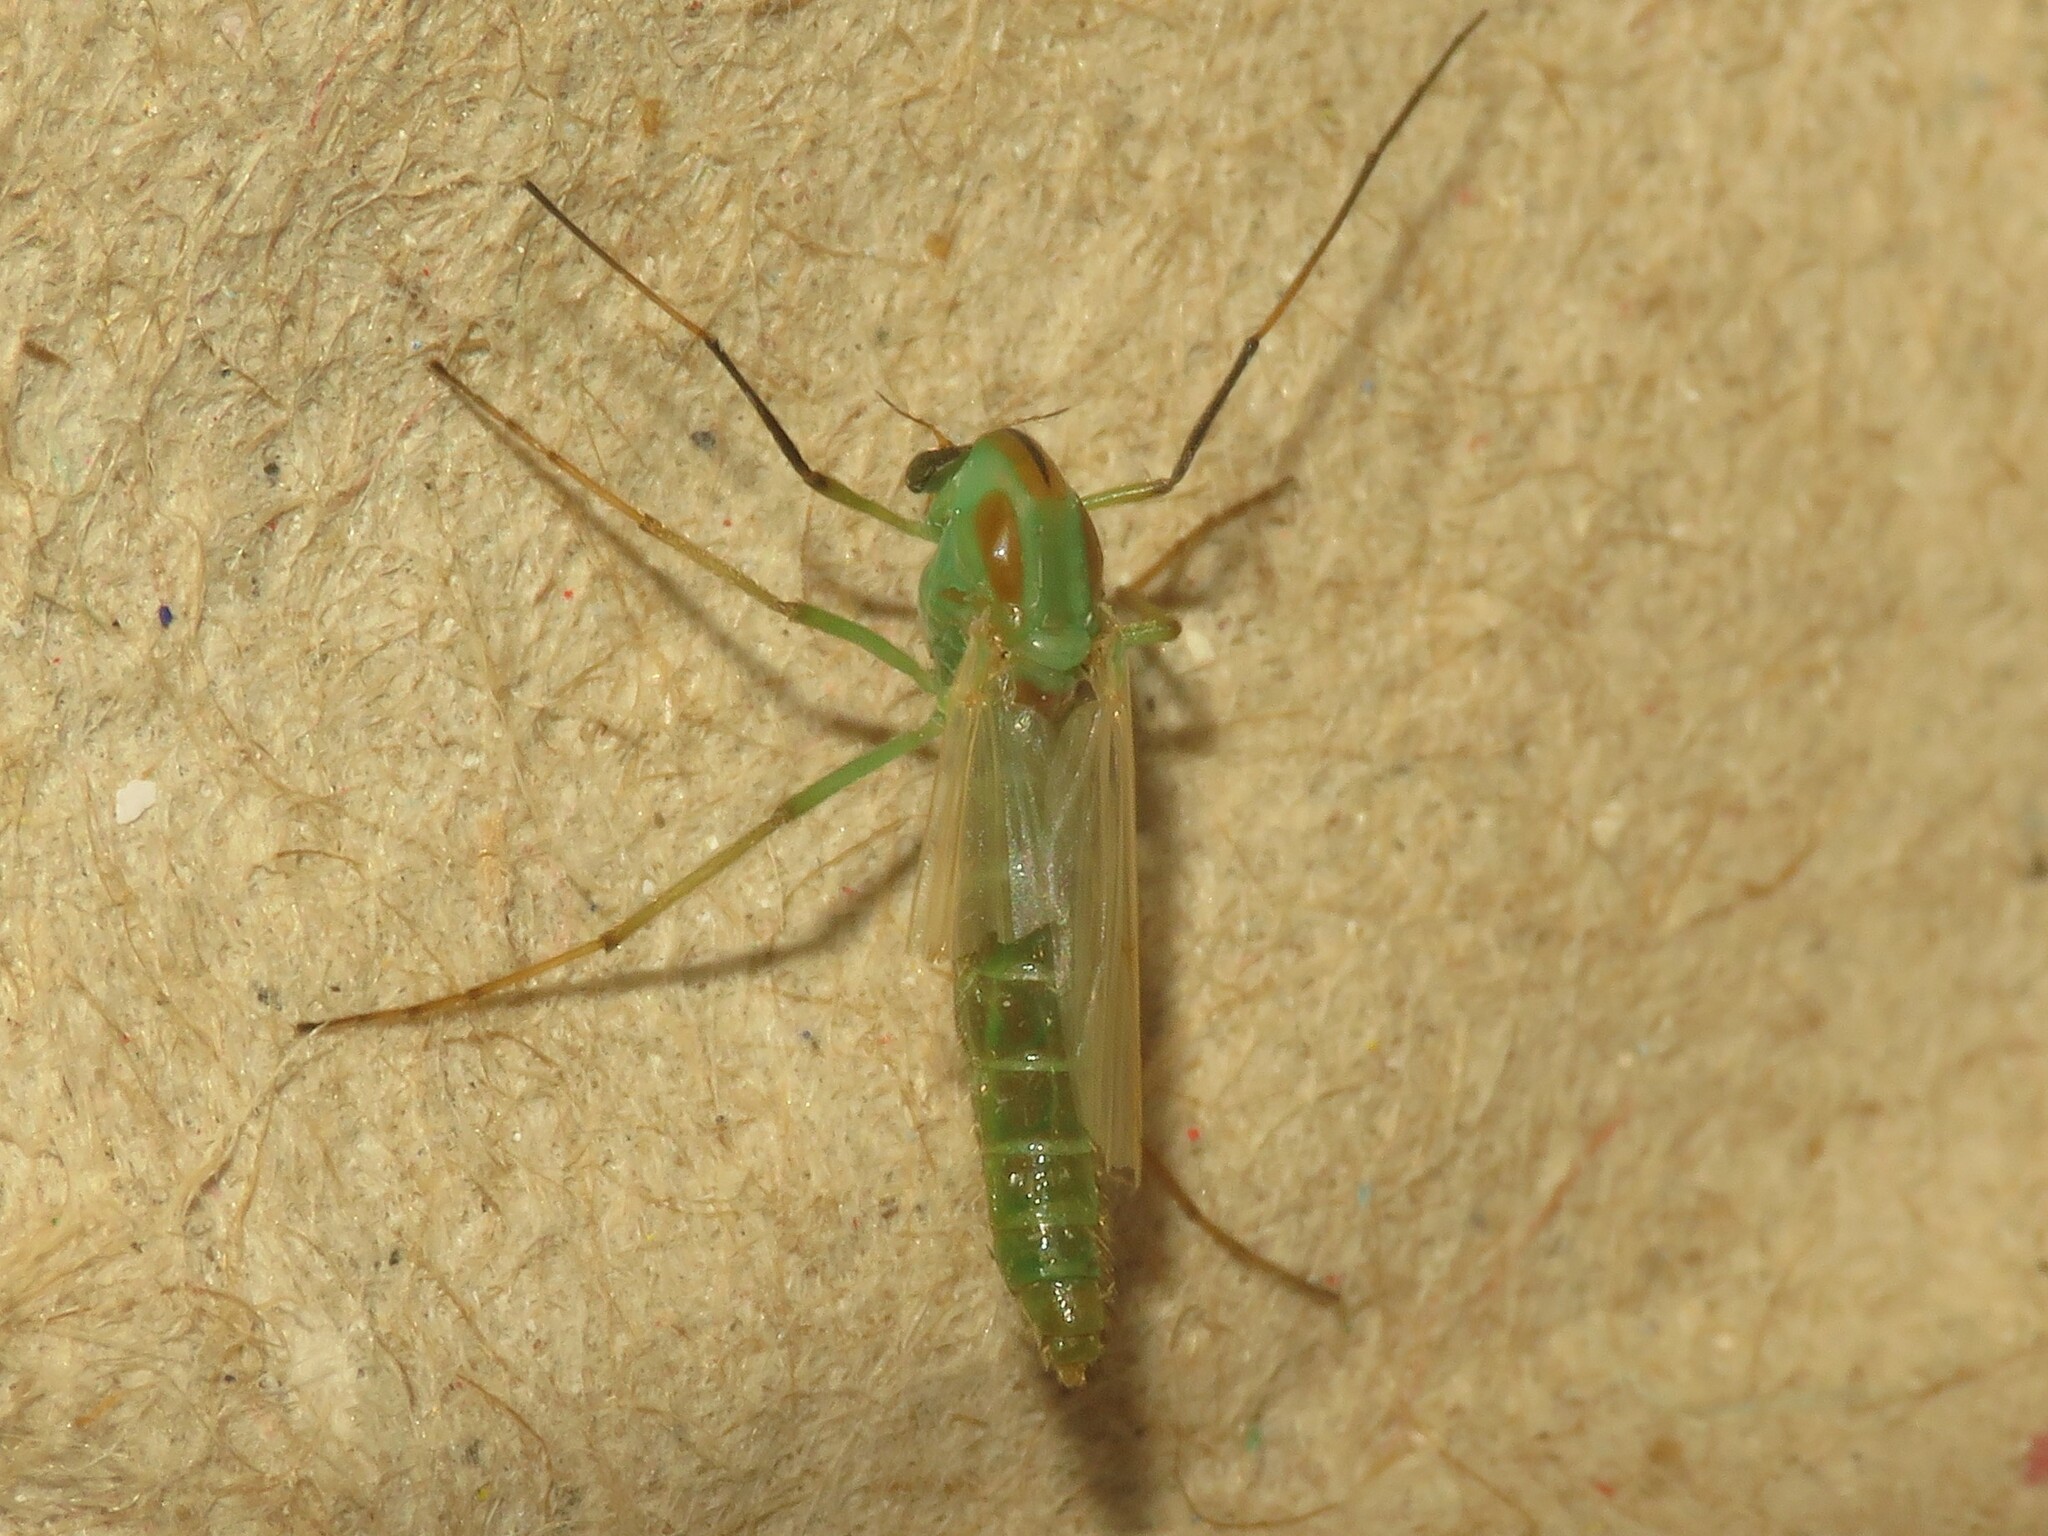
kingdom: Animalia
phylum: Arthropoda
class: Insecta
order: Diptera
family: Chironomidae
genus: Axarus
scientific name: Axarus
